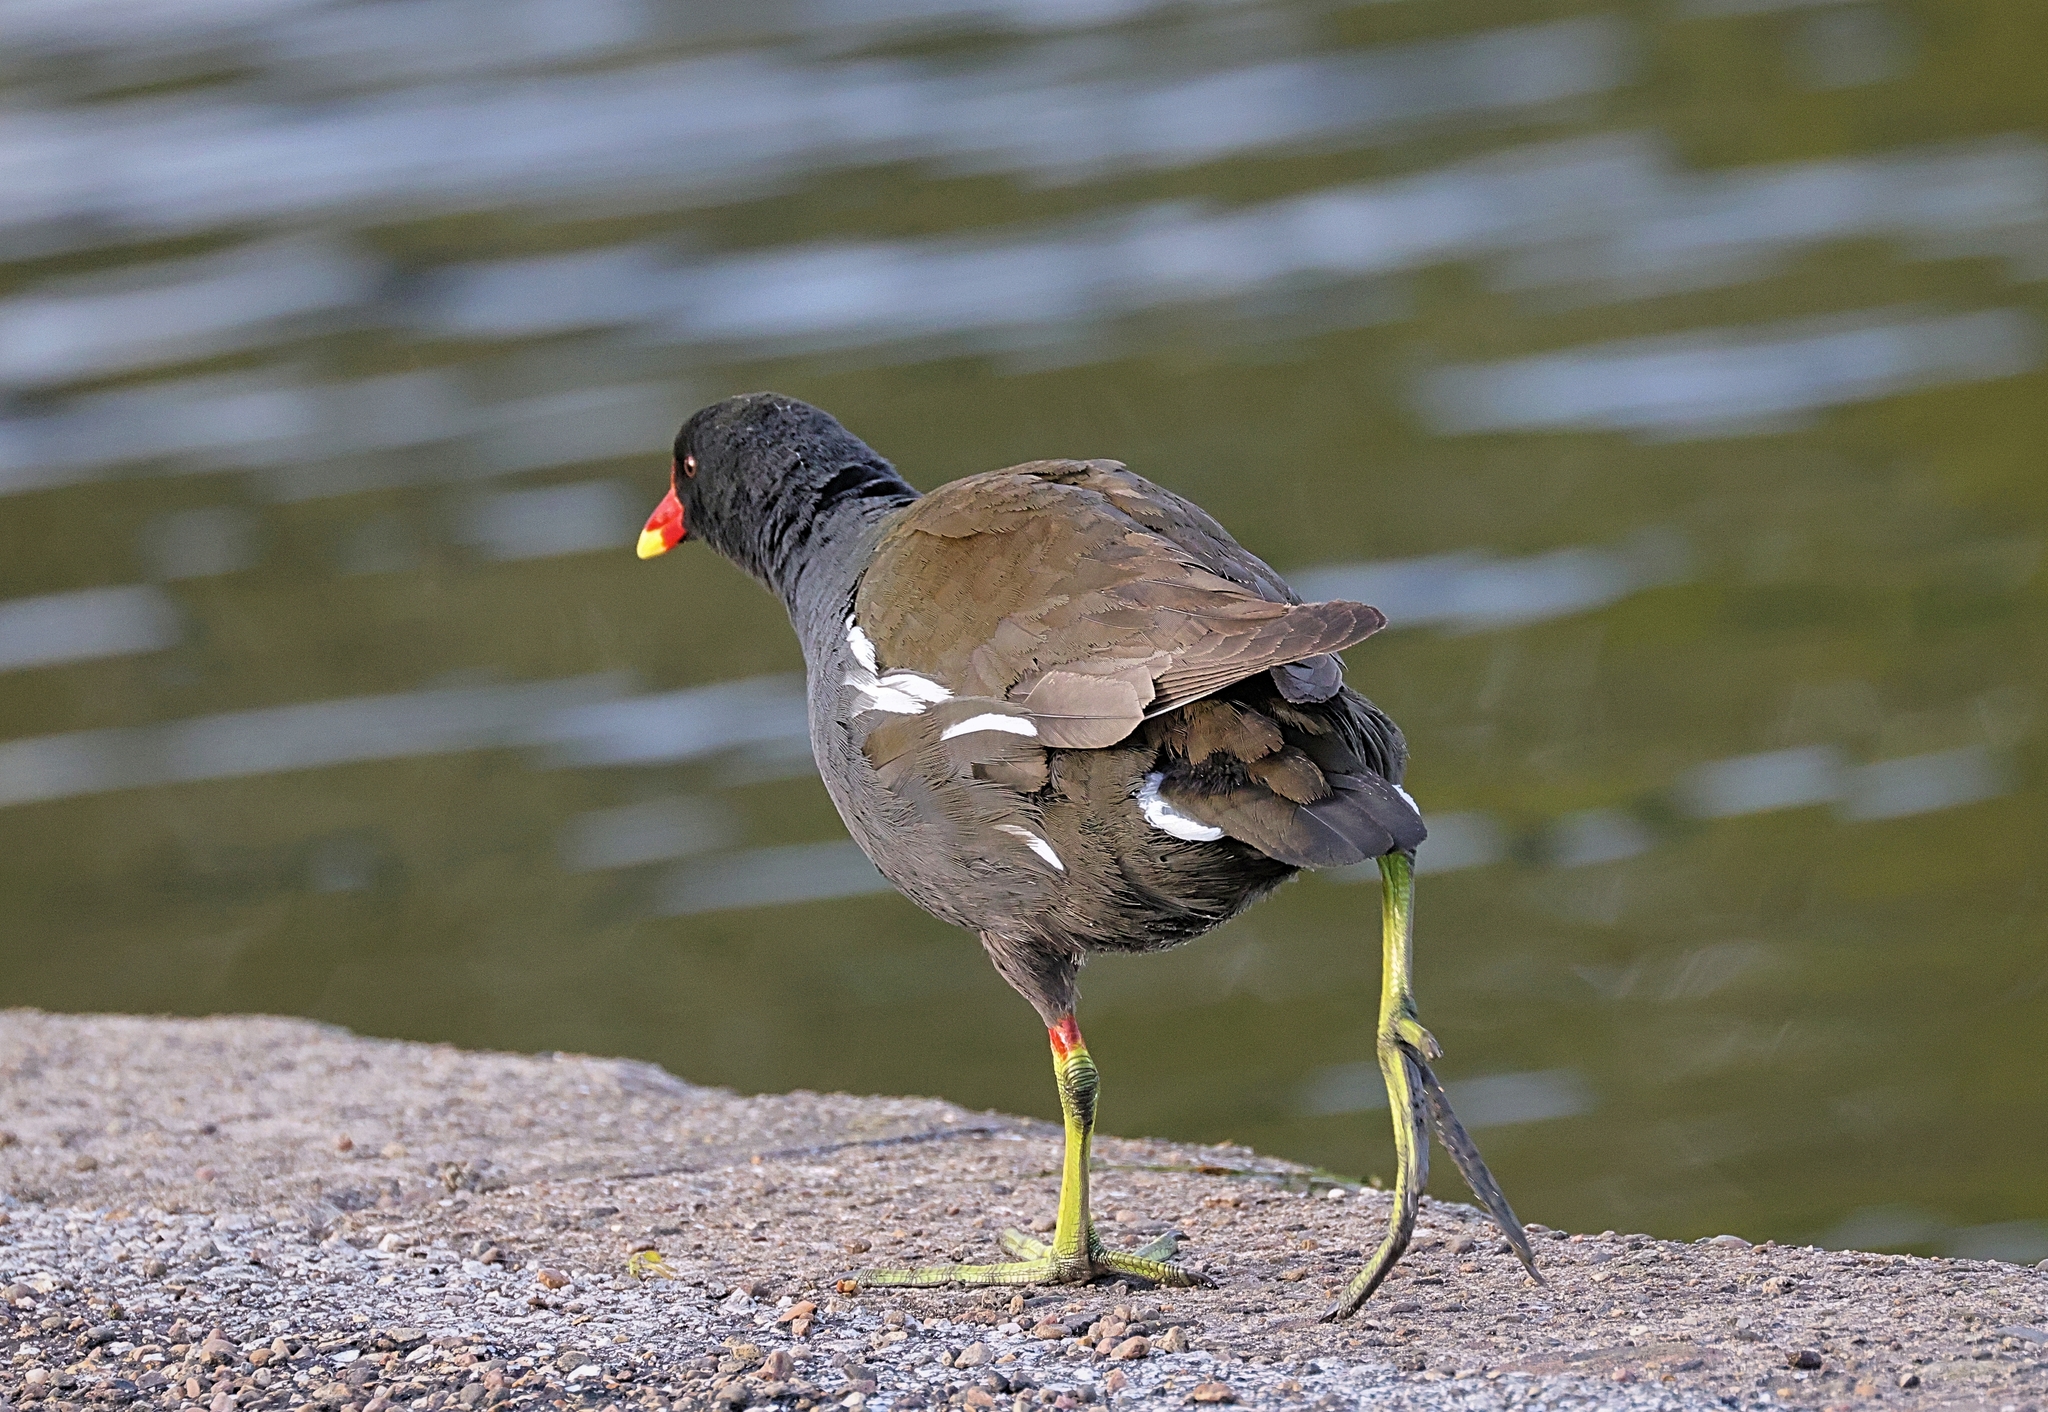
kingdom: Animalia
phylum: Chordata
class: Aves
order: Gruiformes
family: Rallidae
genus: Gallinula
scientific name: Gallinula chloropus
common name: Common moorhen
